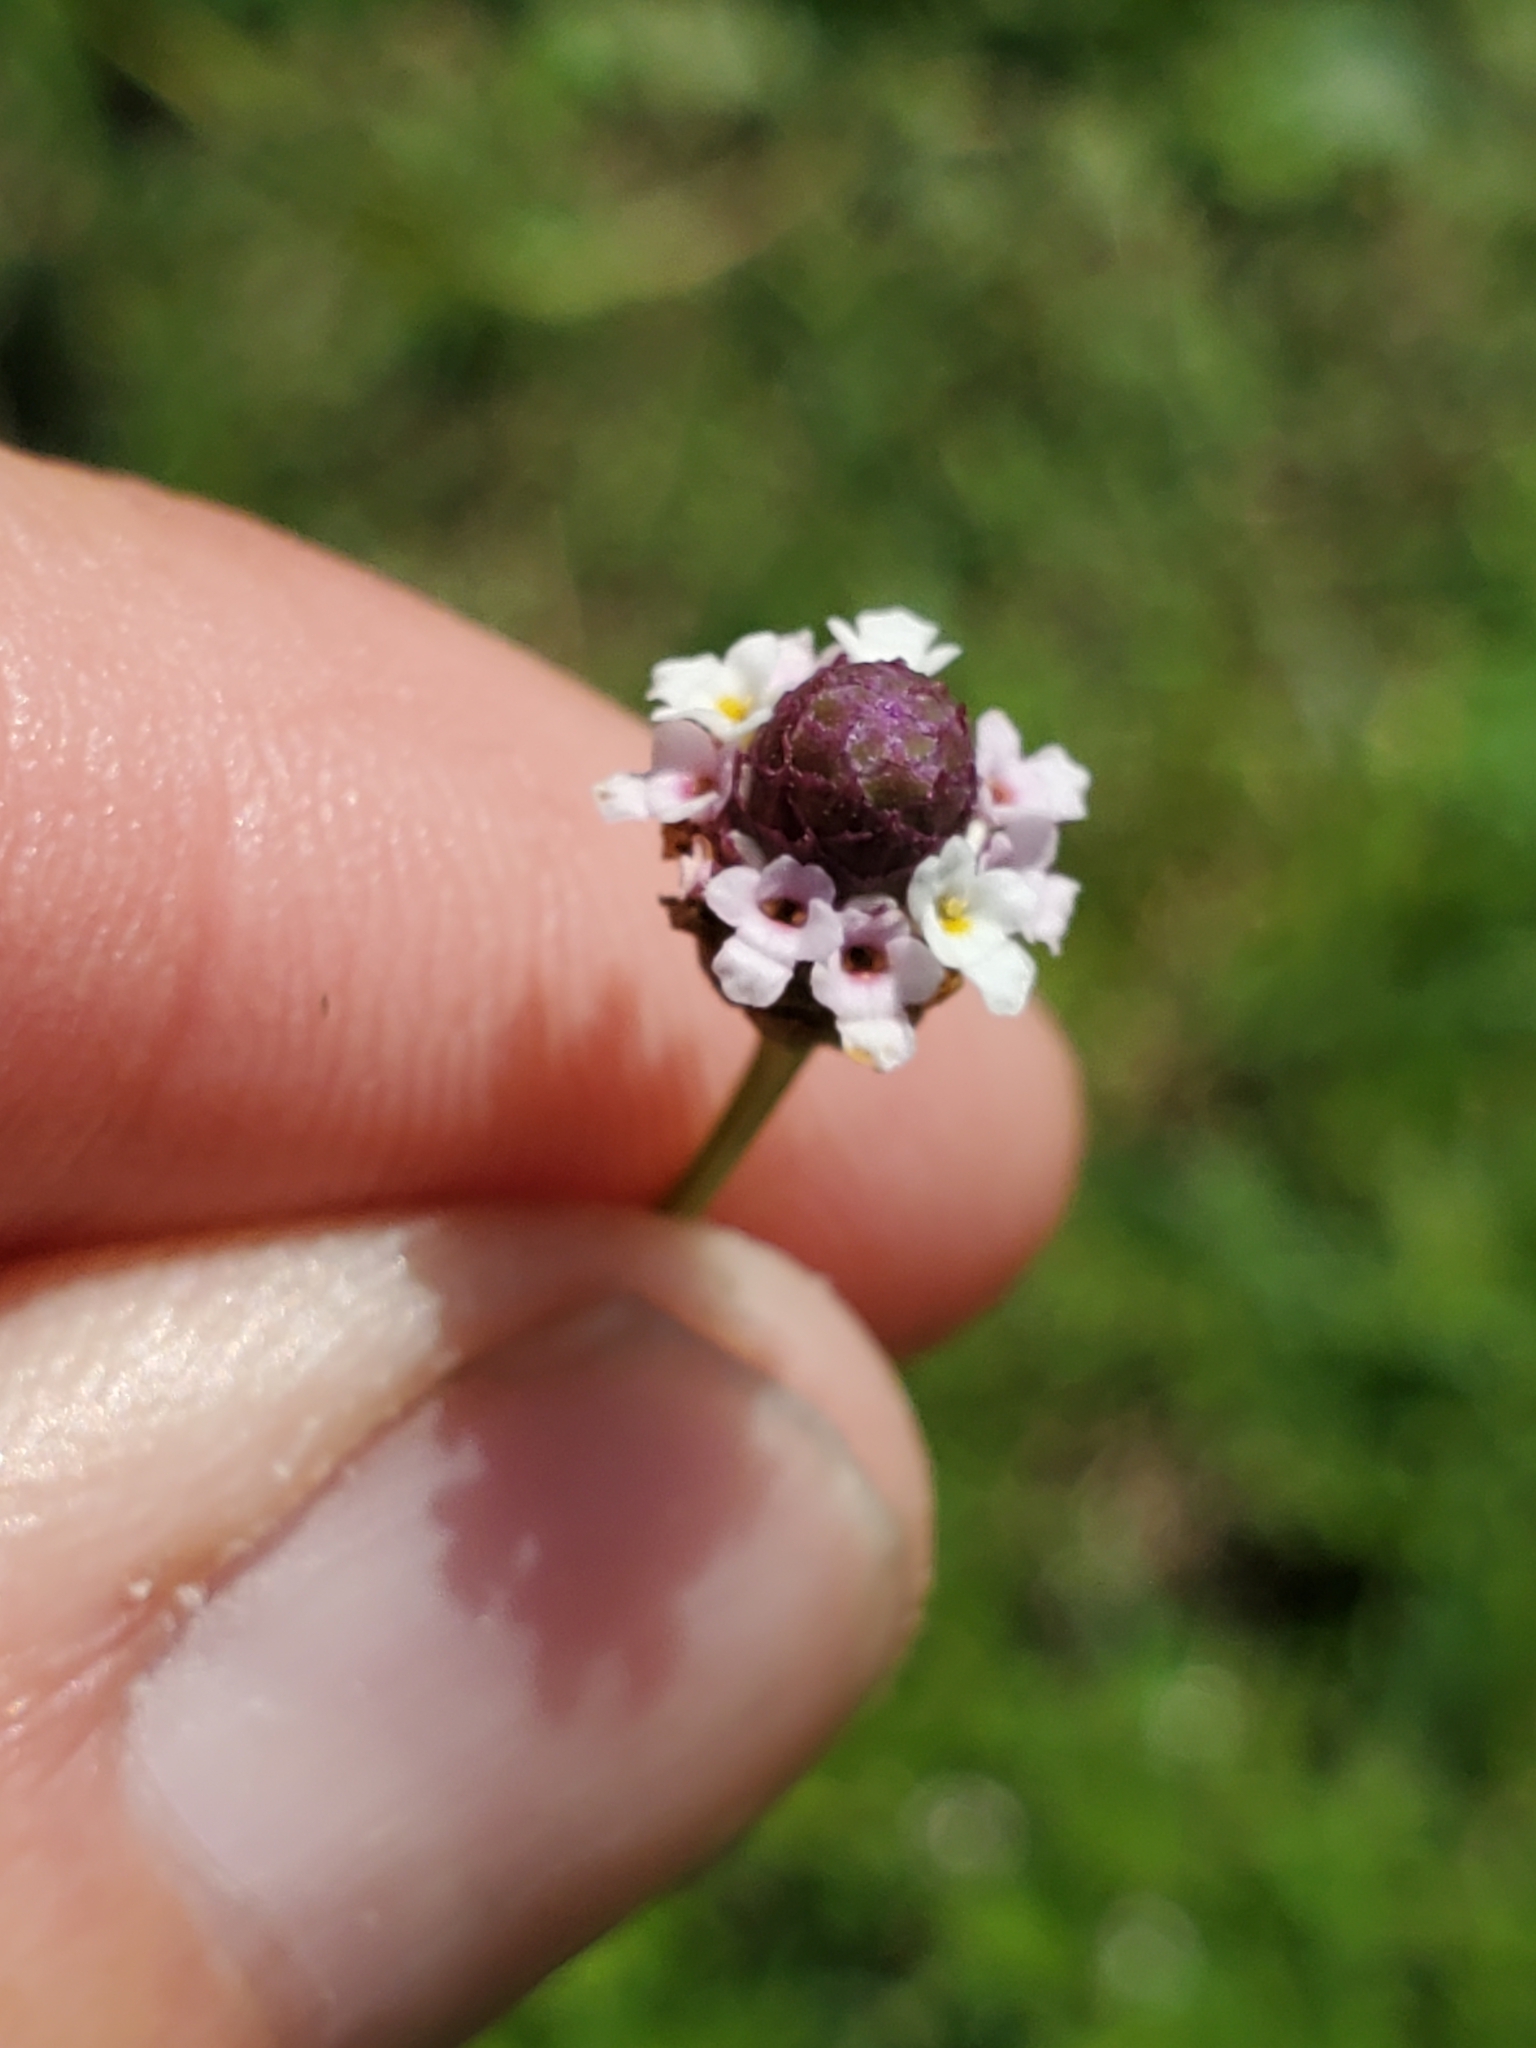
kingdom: Plantae
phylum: Tracheophyta
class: Magnoliopsida
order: Lamiales
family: Verbenaceae
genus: Phyla
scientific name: Phyla lanceolata
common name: Northern fogfruit
